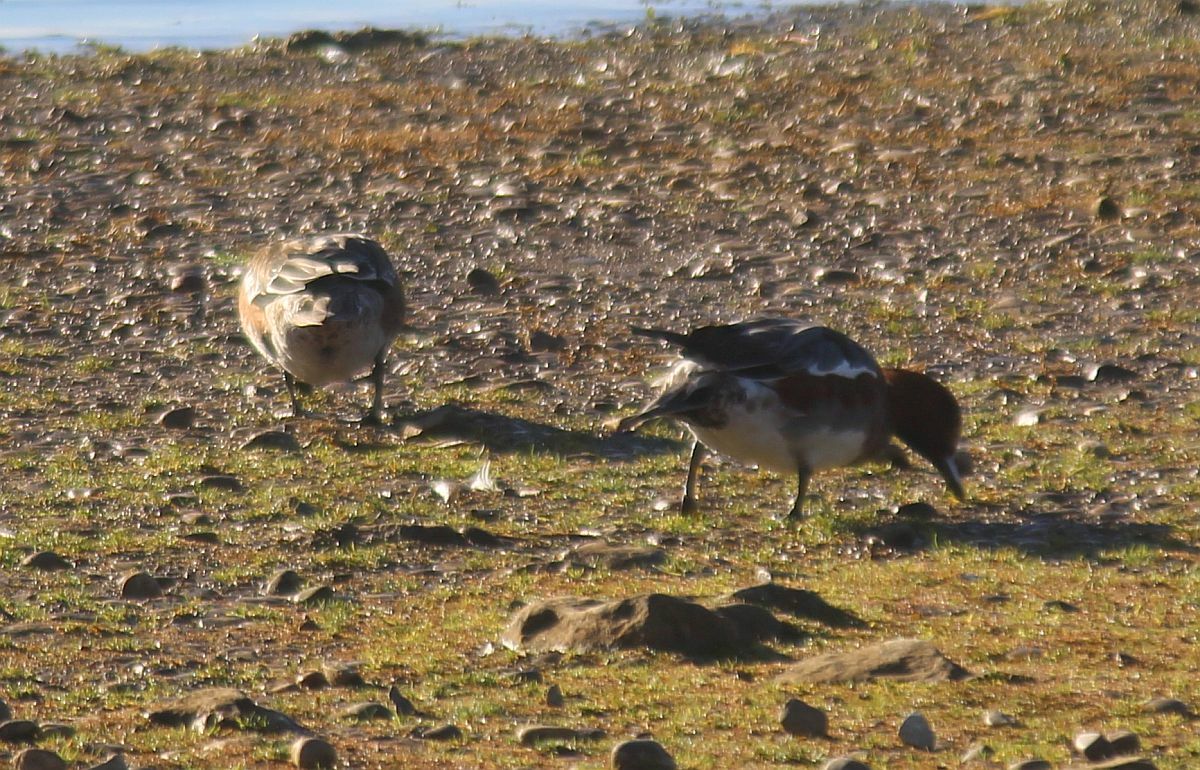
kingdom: Animalia
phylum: Chordata
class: Aves
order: Anseriformes
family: Anatidae
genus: Mareca
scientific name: Mareca penelope
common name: Eurasian wigeon
